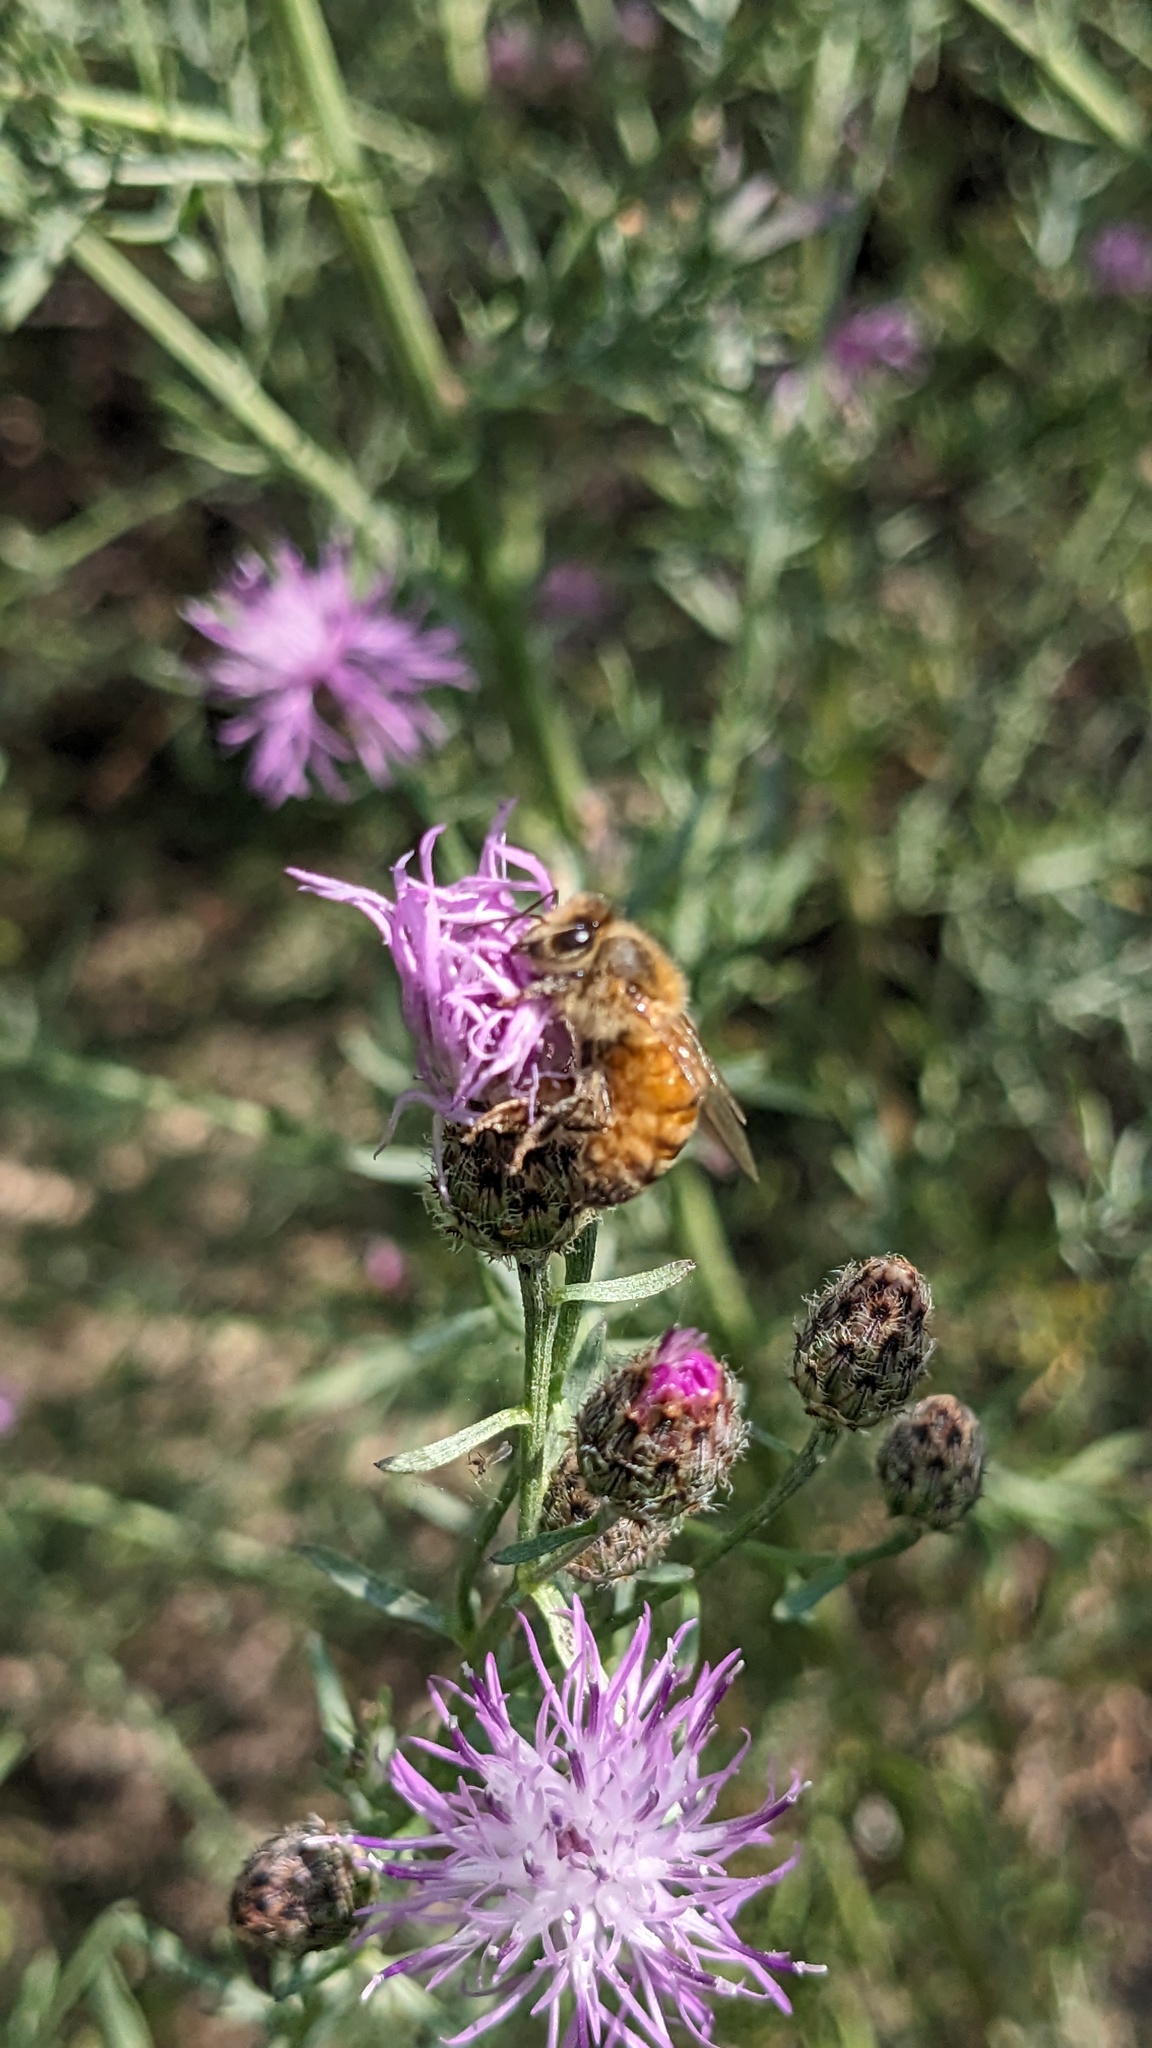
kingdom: Animalia
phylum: Arthropoda
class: Insecta
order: Hymenoptera
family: Apidae
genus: Apis
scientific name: Apis mellifera
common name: Honey bee
